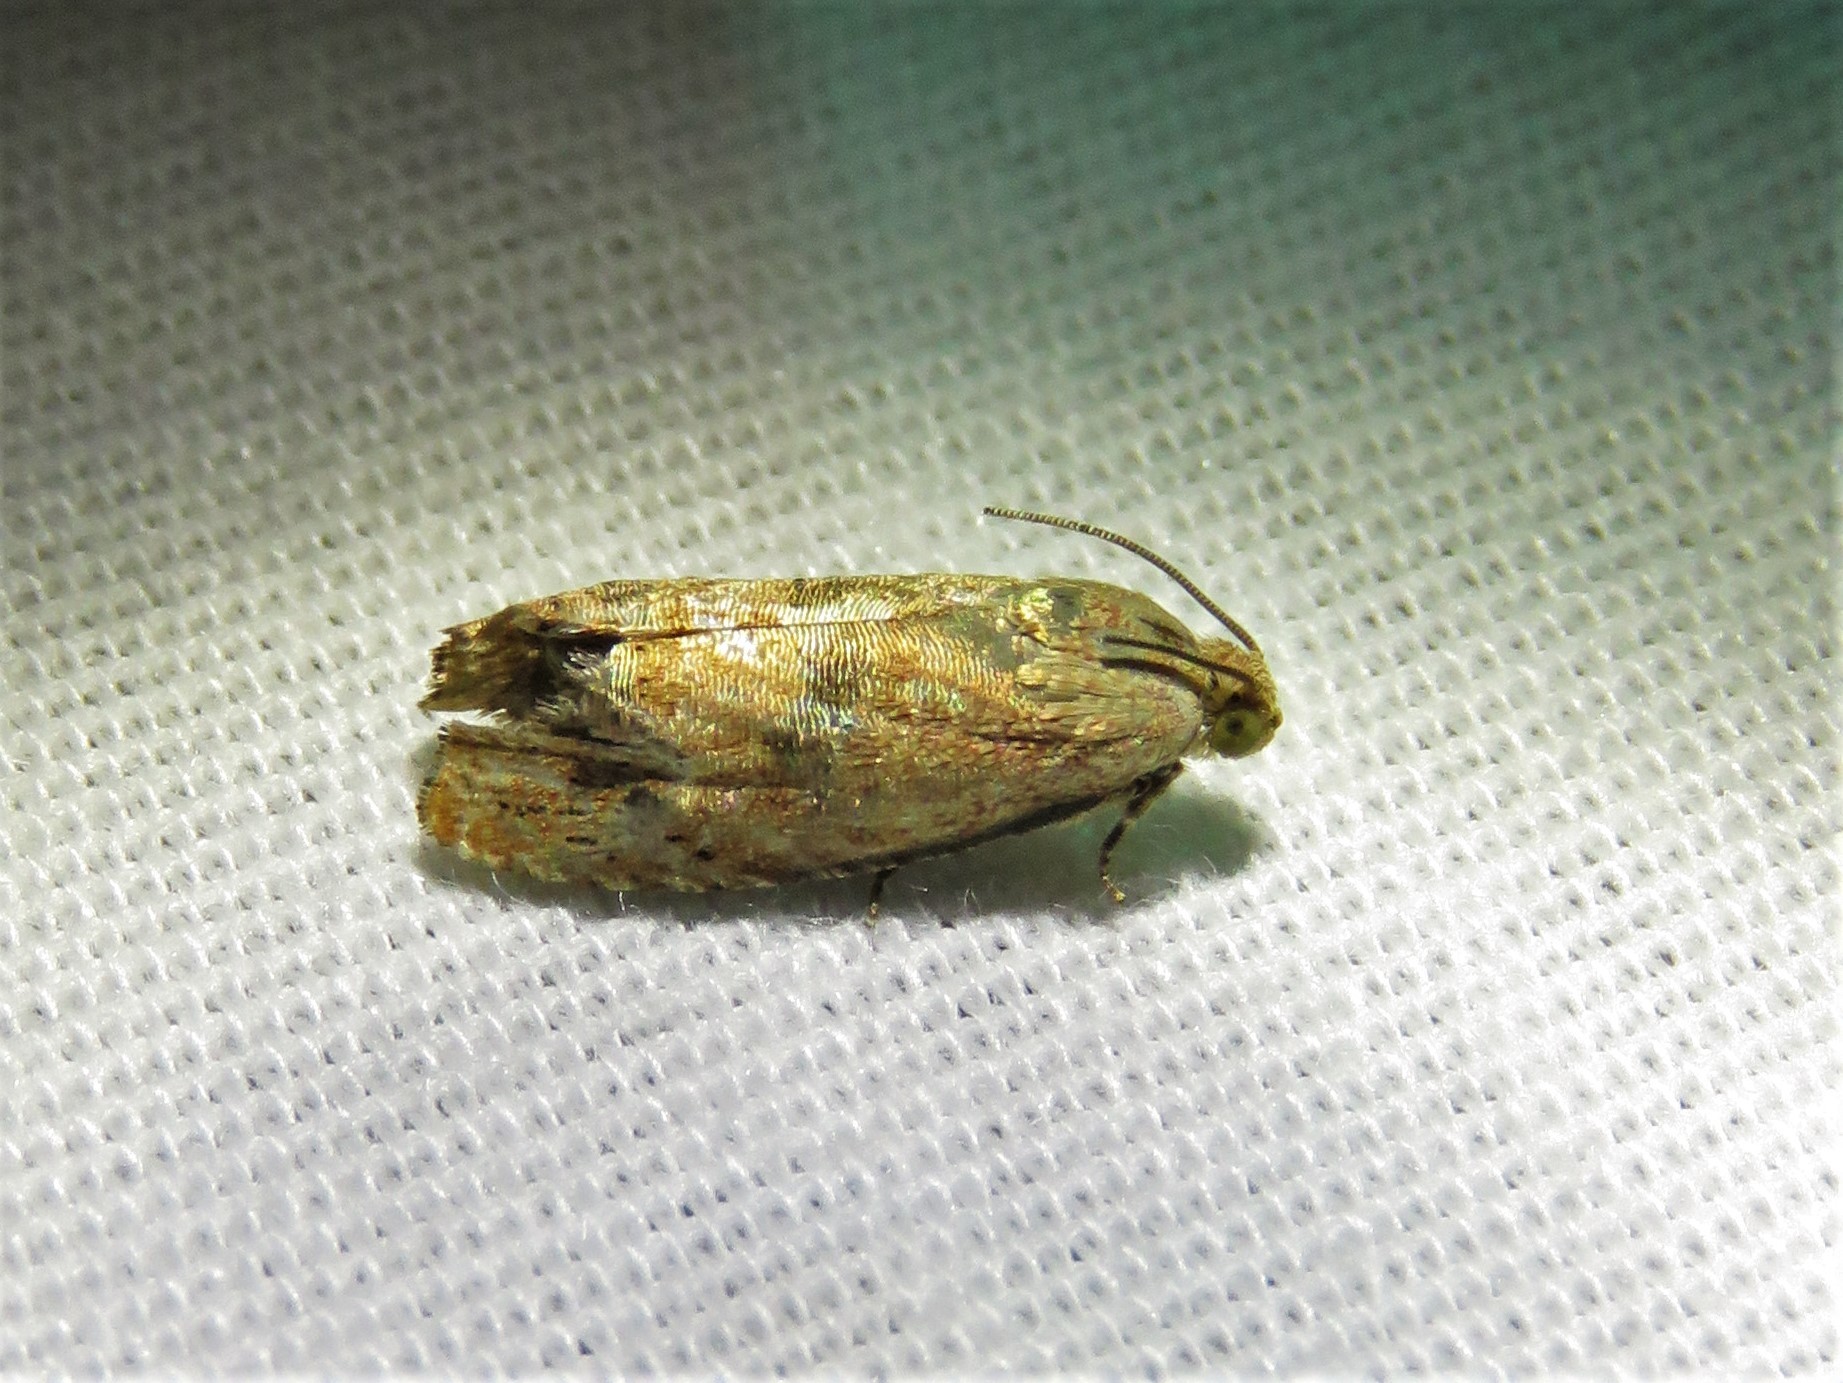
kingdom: Animalia
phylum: Arthropoda
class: Insecta
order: Lepidoptera
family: Tortricidae
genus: Cydia
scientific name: Cydia latiferreana
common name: Filbertworm moth
